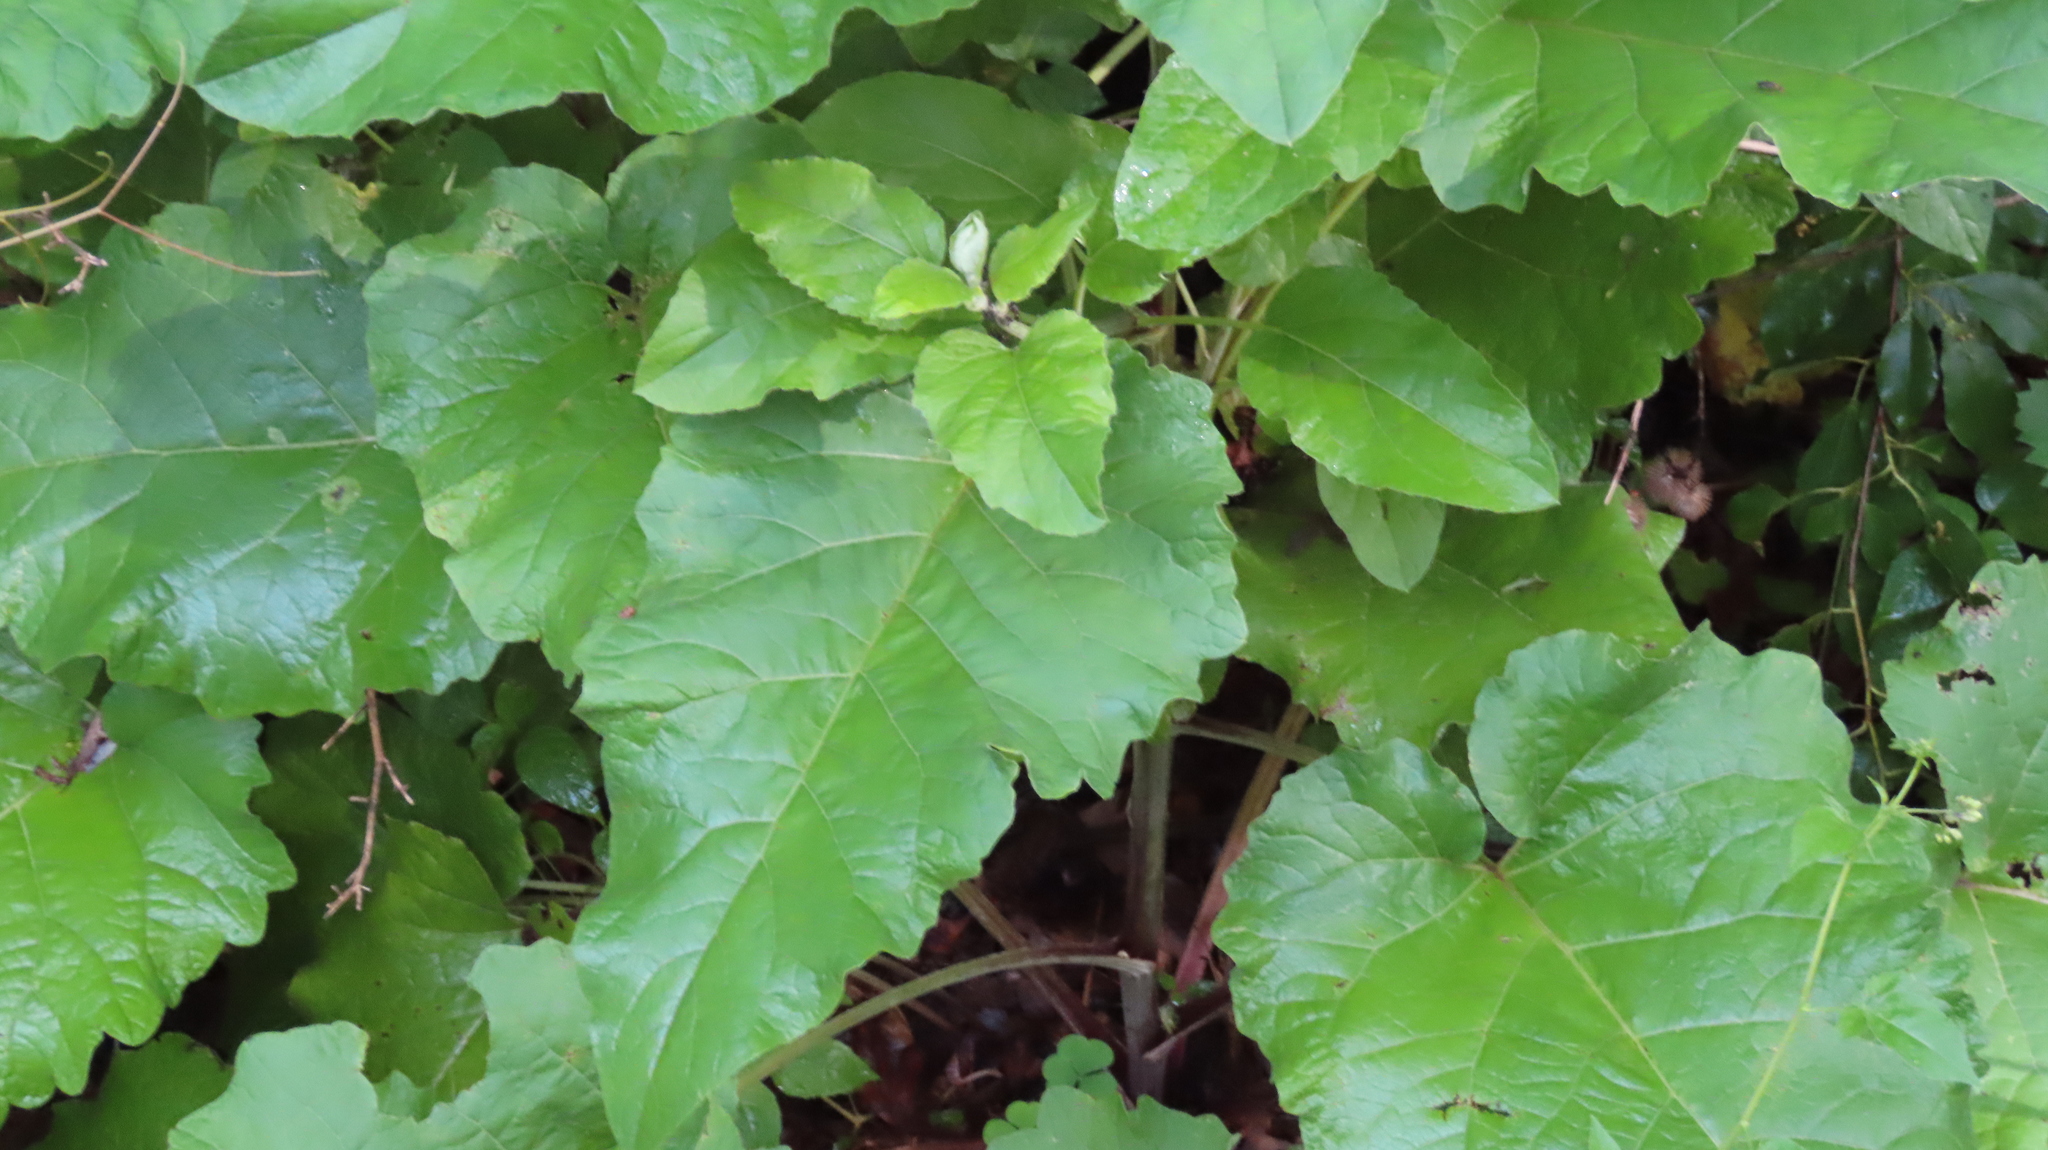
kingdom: Plantae
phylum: Tracheophyta
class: Magnoliopsida
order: Asterales
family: Asteraceae
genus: Arctium
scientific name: Arctium
